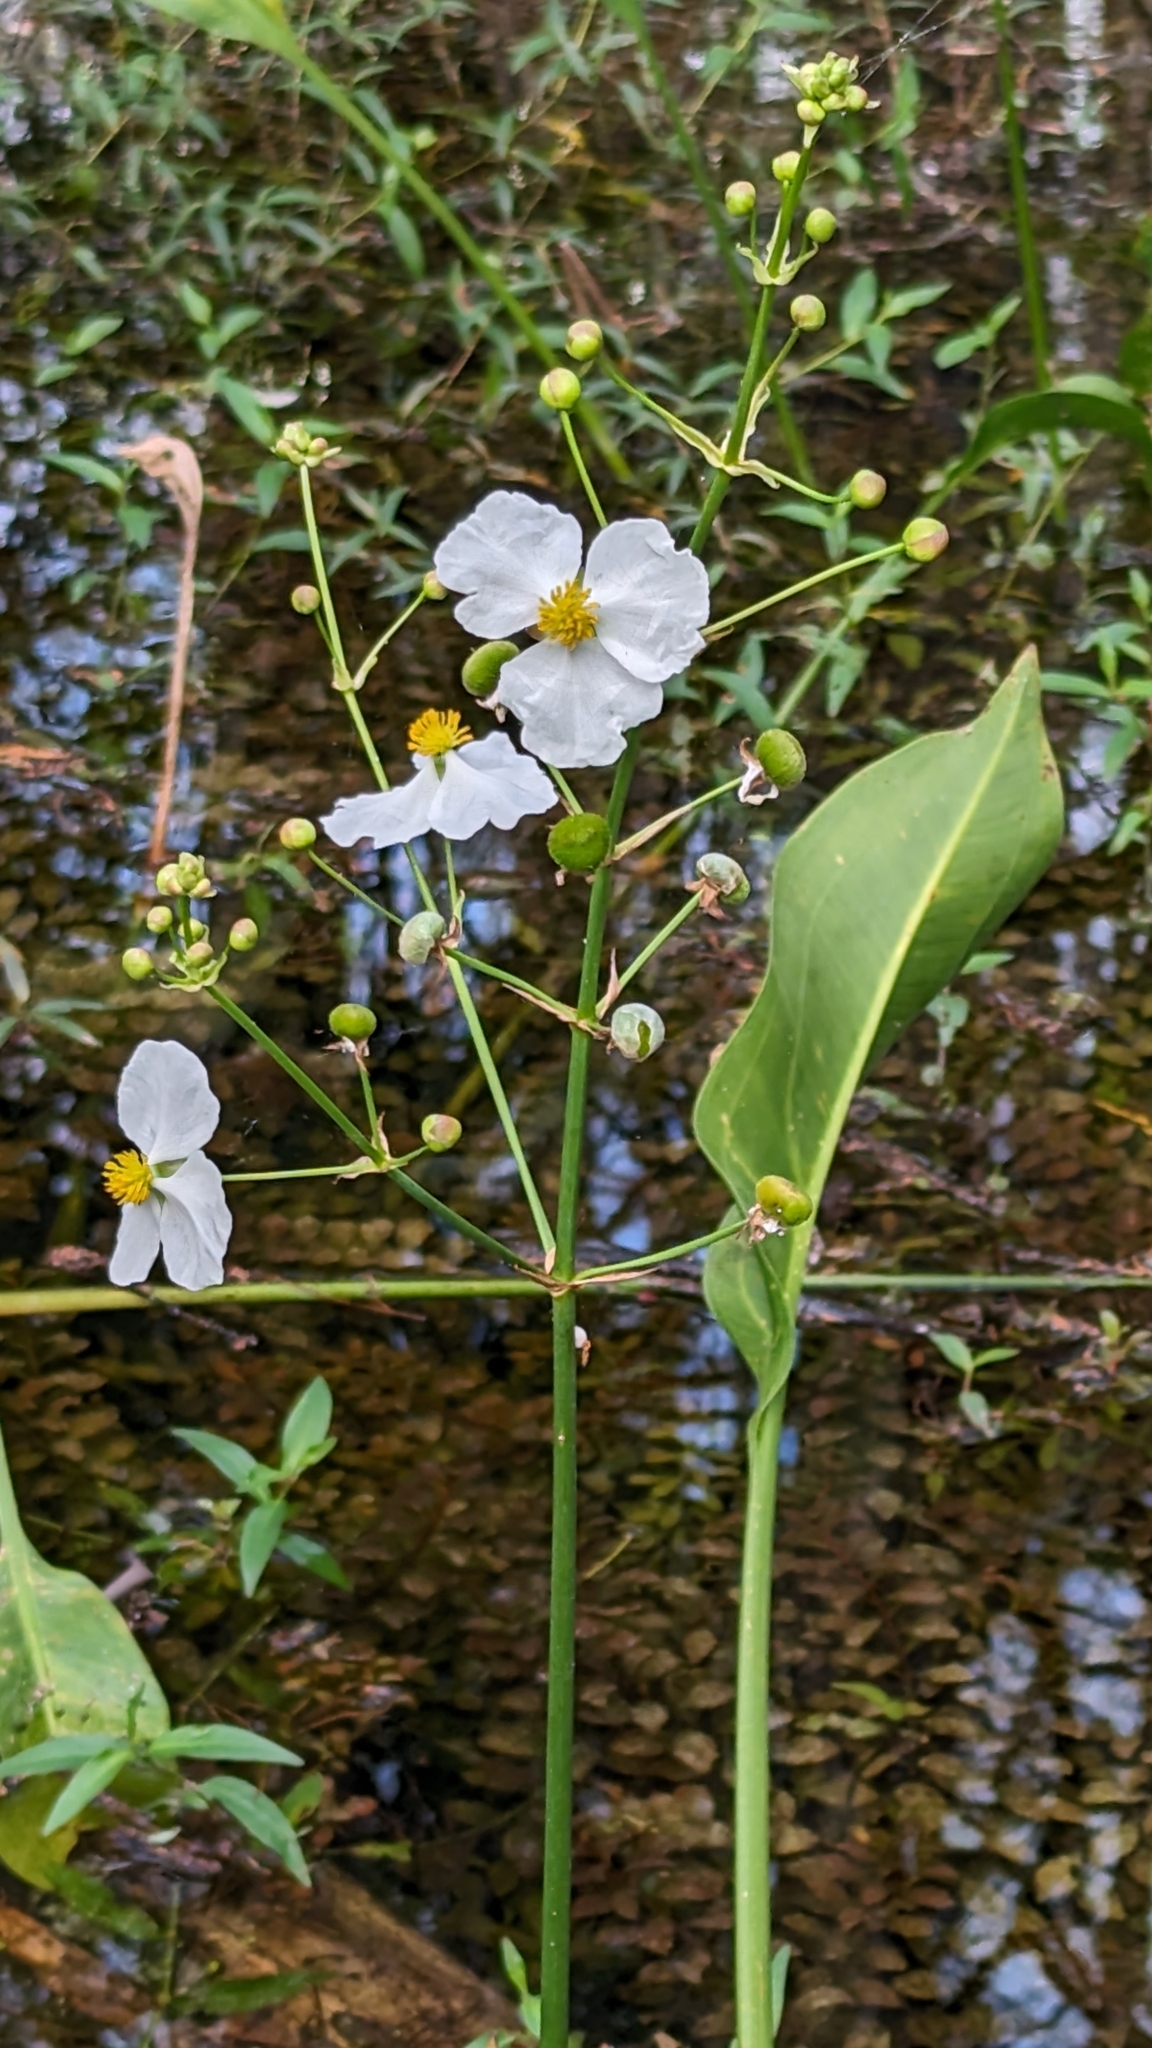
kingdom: Plantae
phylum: Tracheophyta
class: Liliopsida
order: Alismatales
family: Alismataceae
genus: Sagittaria
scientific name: Sagittaria lancifolia
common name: Lance-leaf arrowhead
